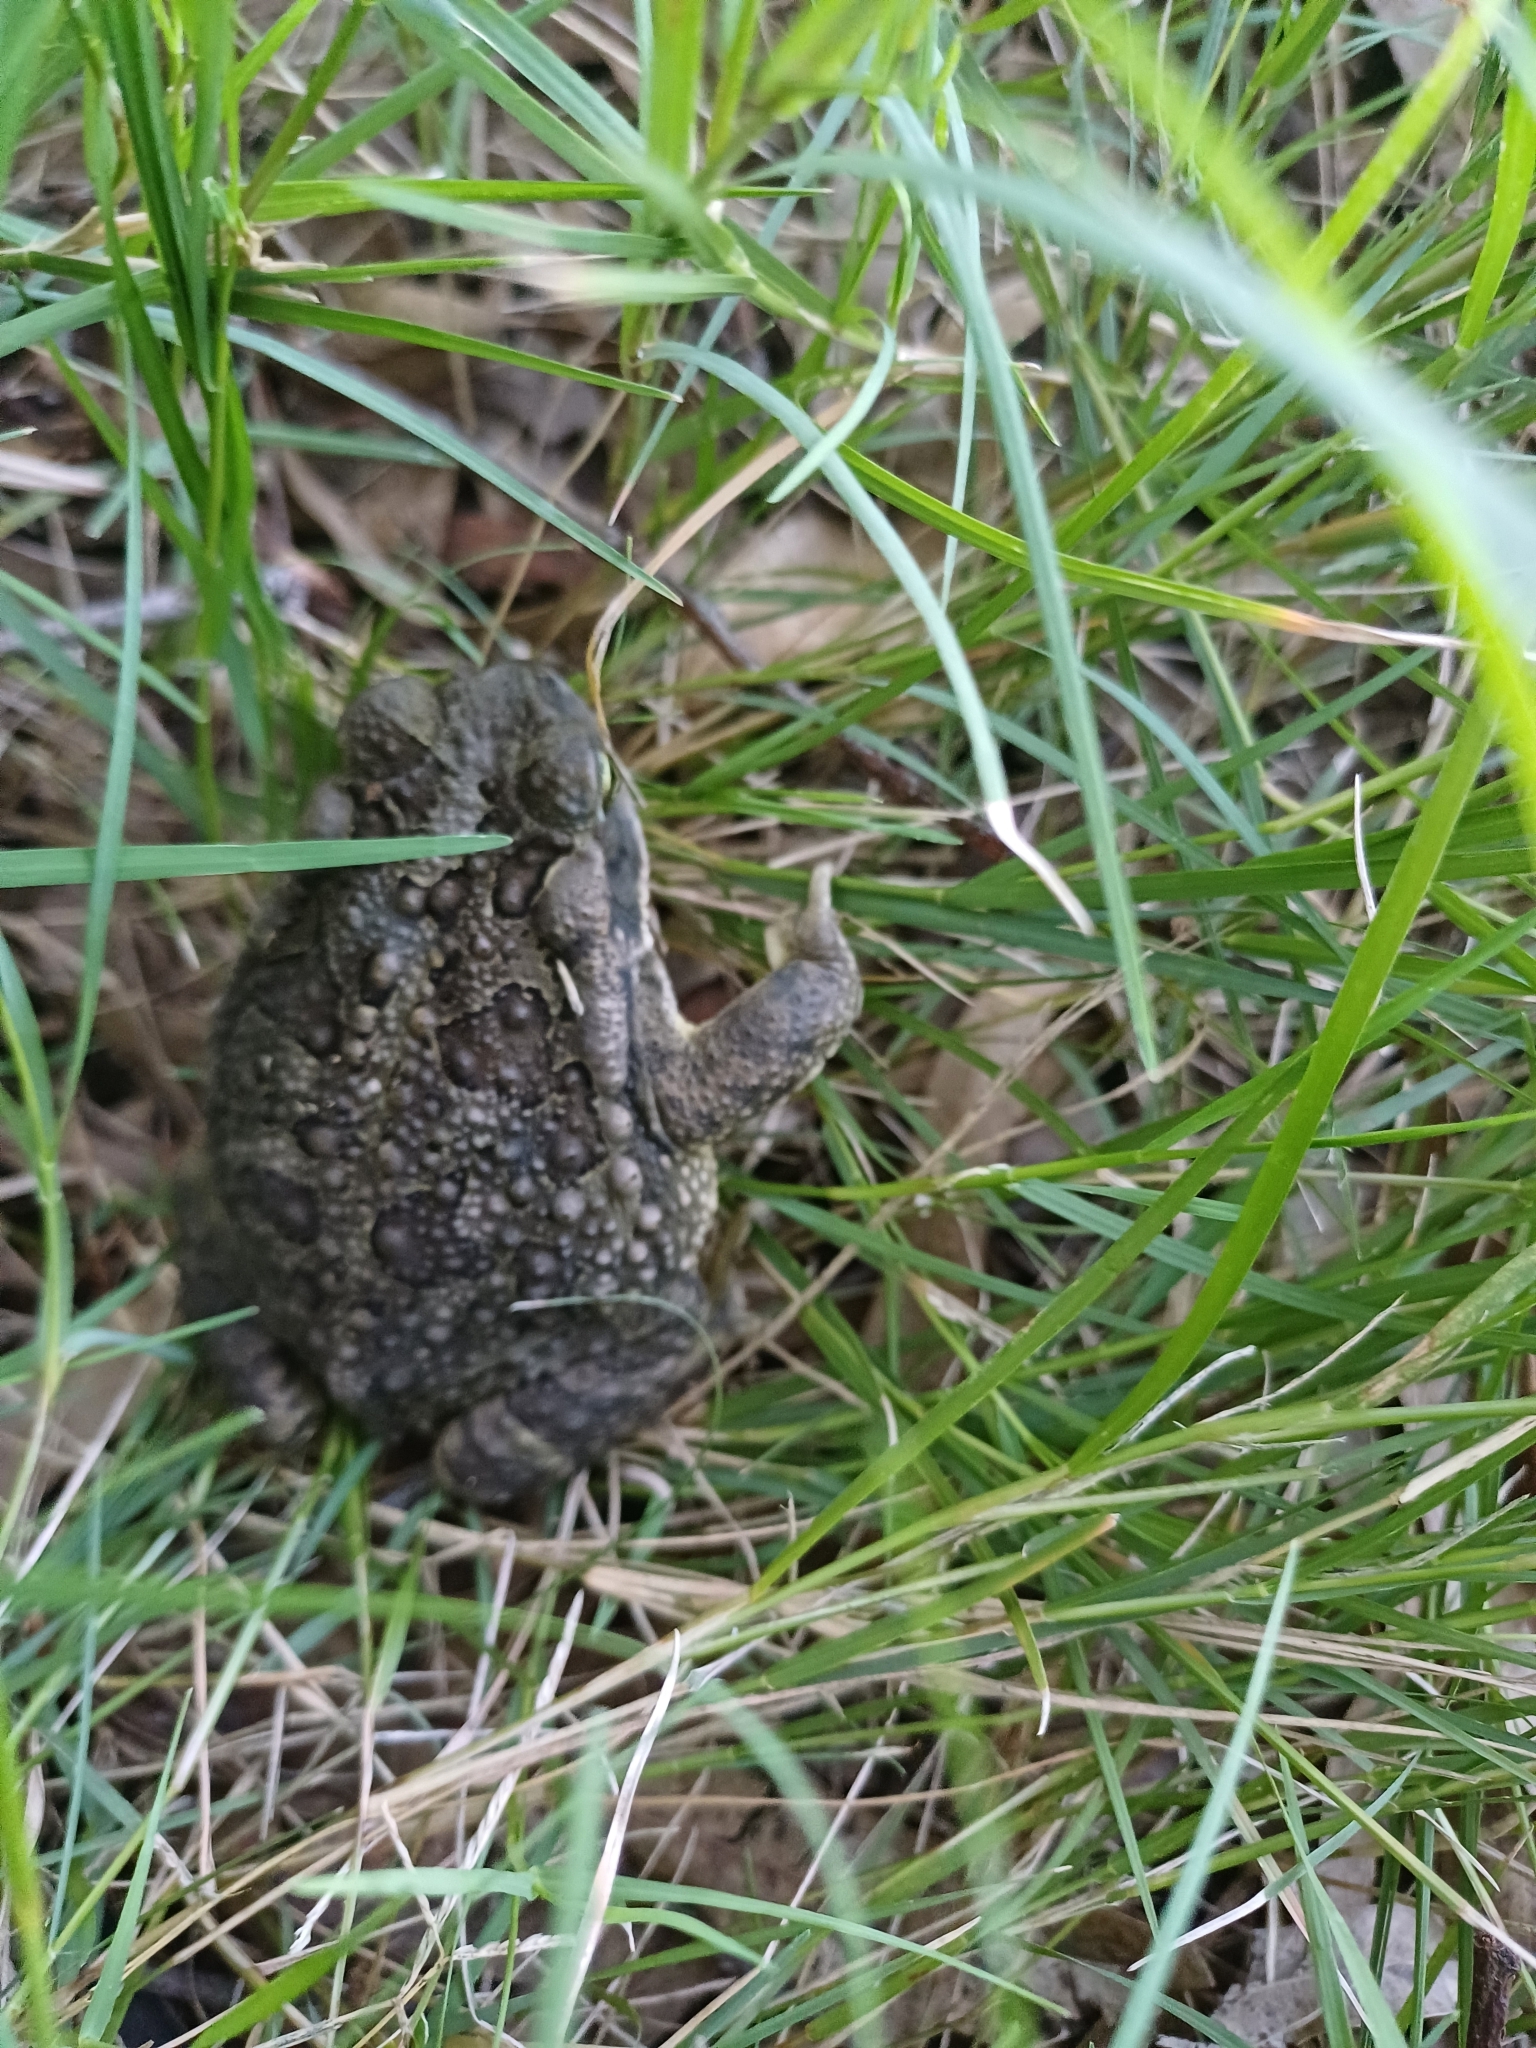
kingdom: Animalia
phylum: Chordata
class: Amphibia
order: Anura
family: Bufonidae
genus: Rhinella
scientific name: Rhinella arenarum
